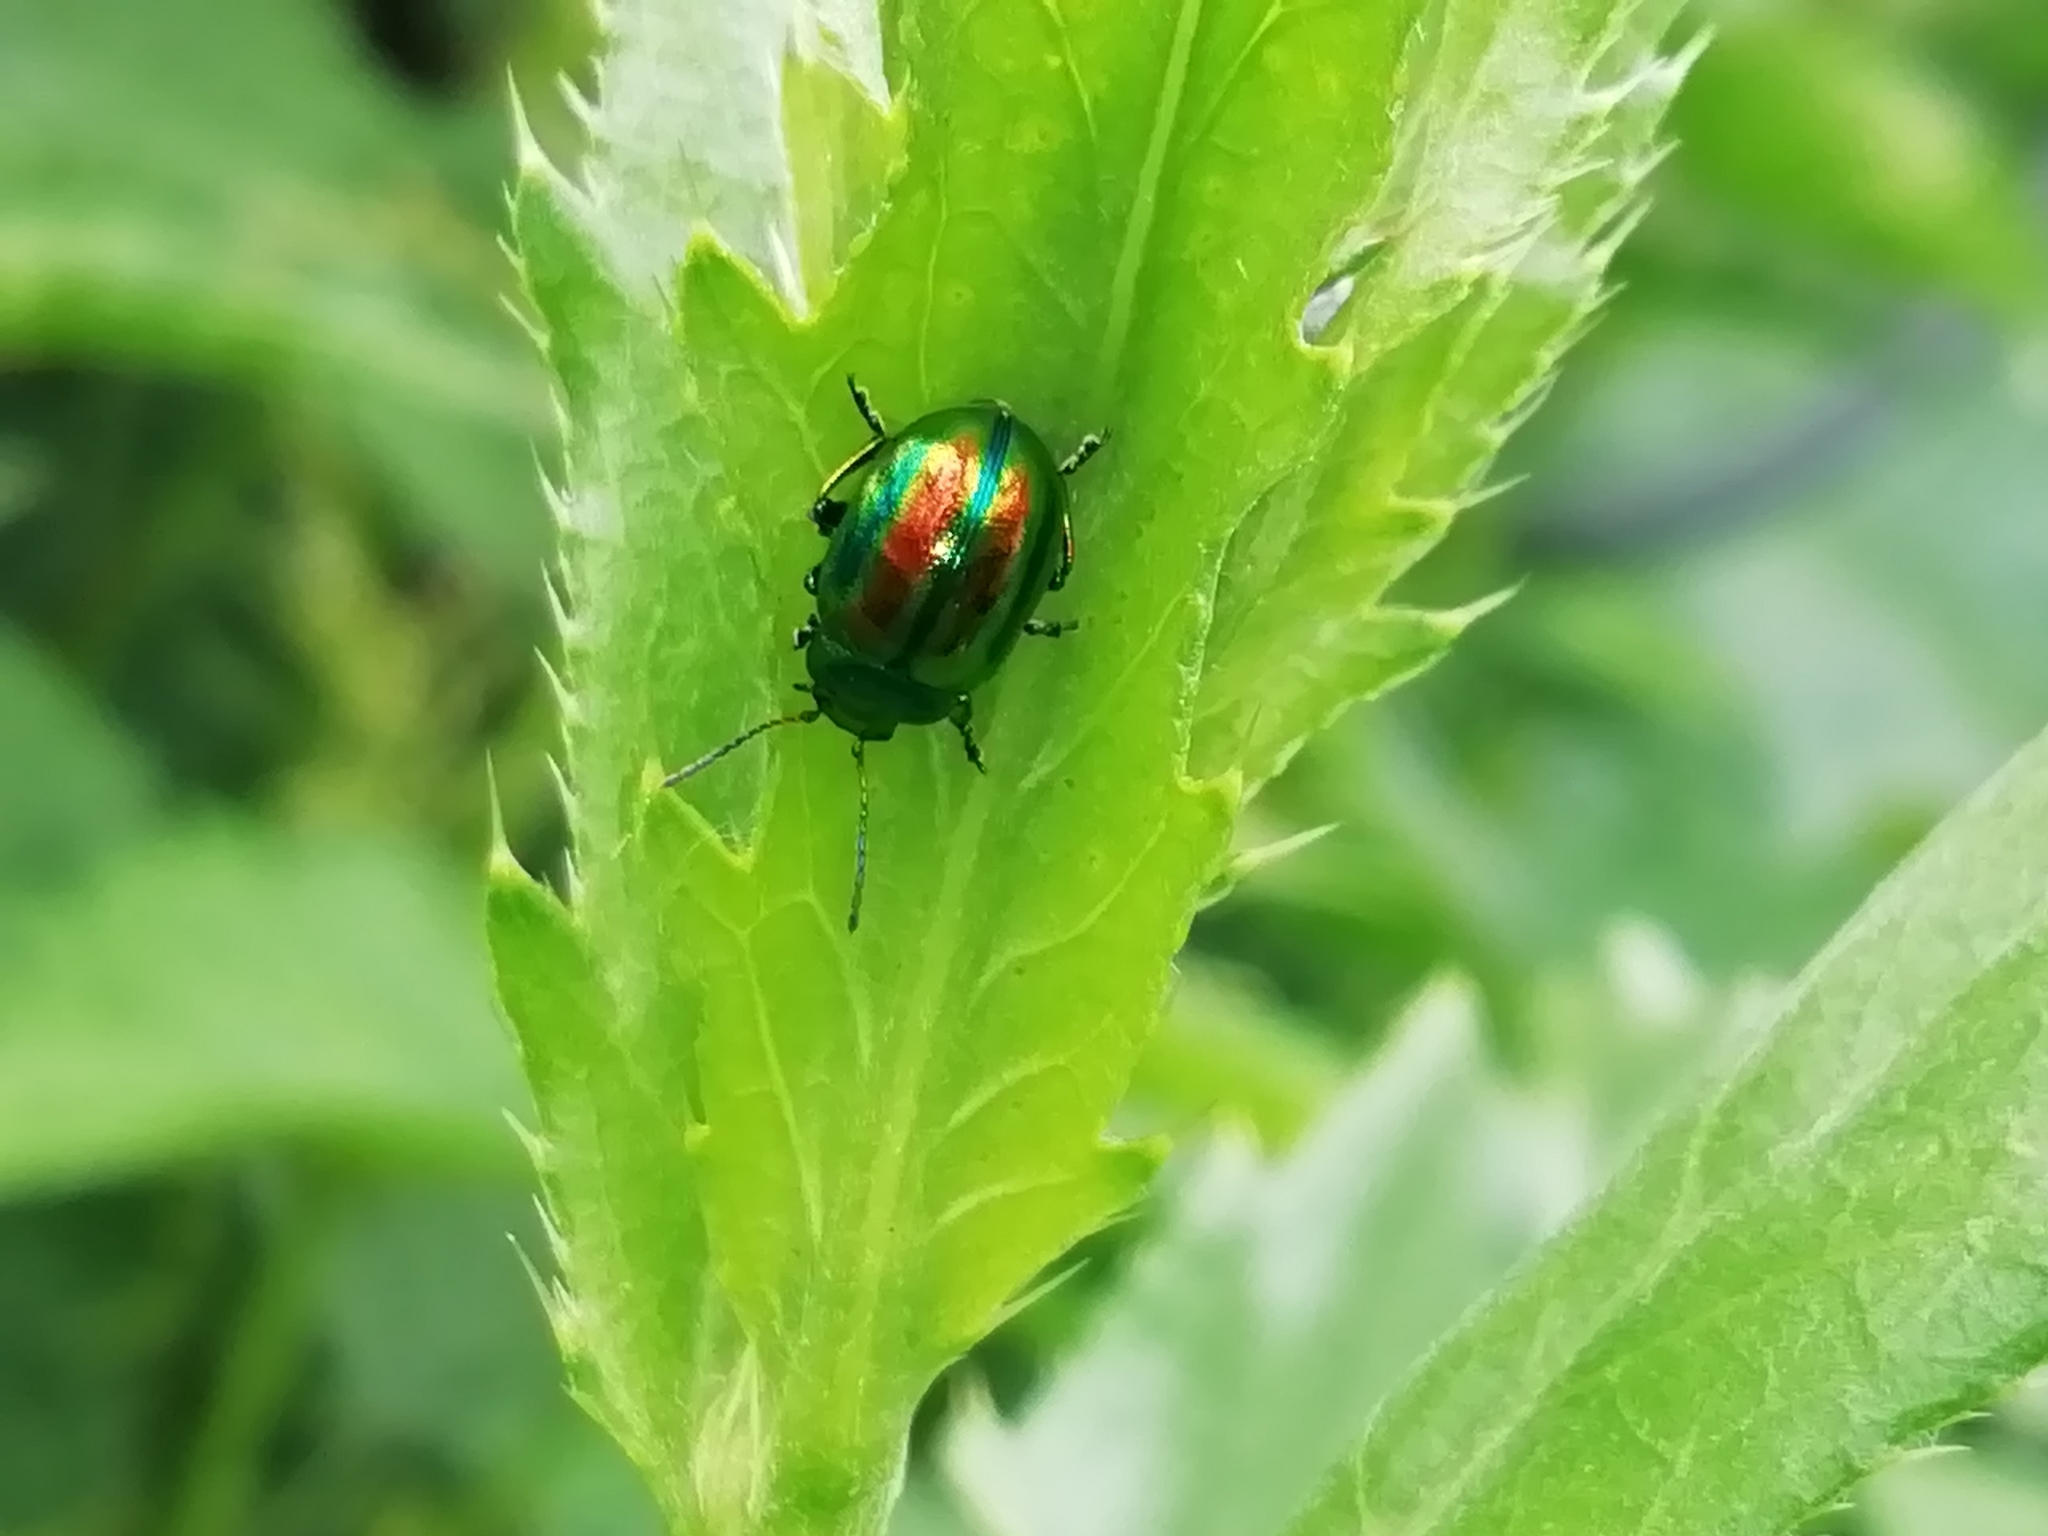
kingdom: Animalia
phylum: Arthropoda
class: Insecta
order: Coleoptera
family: Chrysomelidae
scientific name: Chrysomelidae
